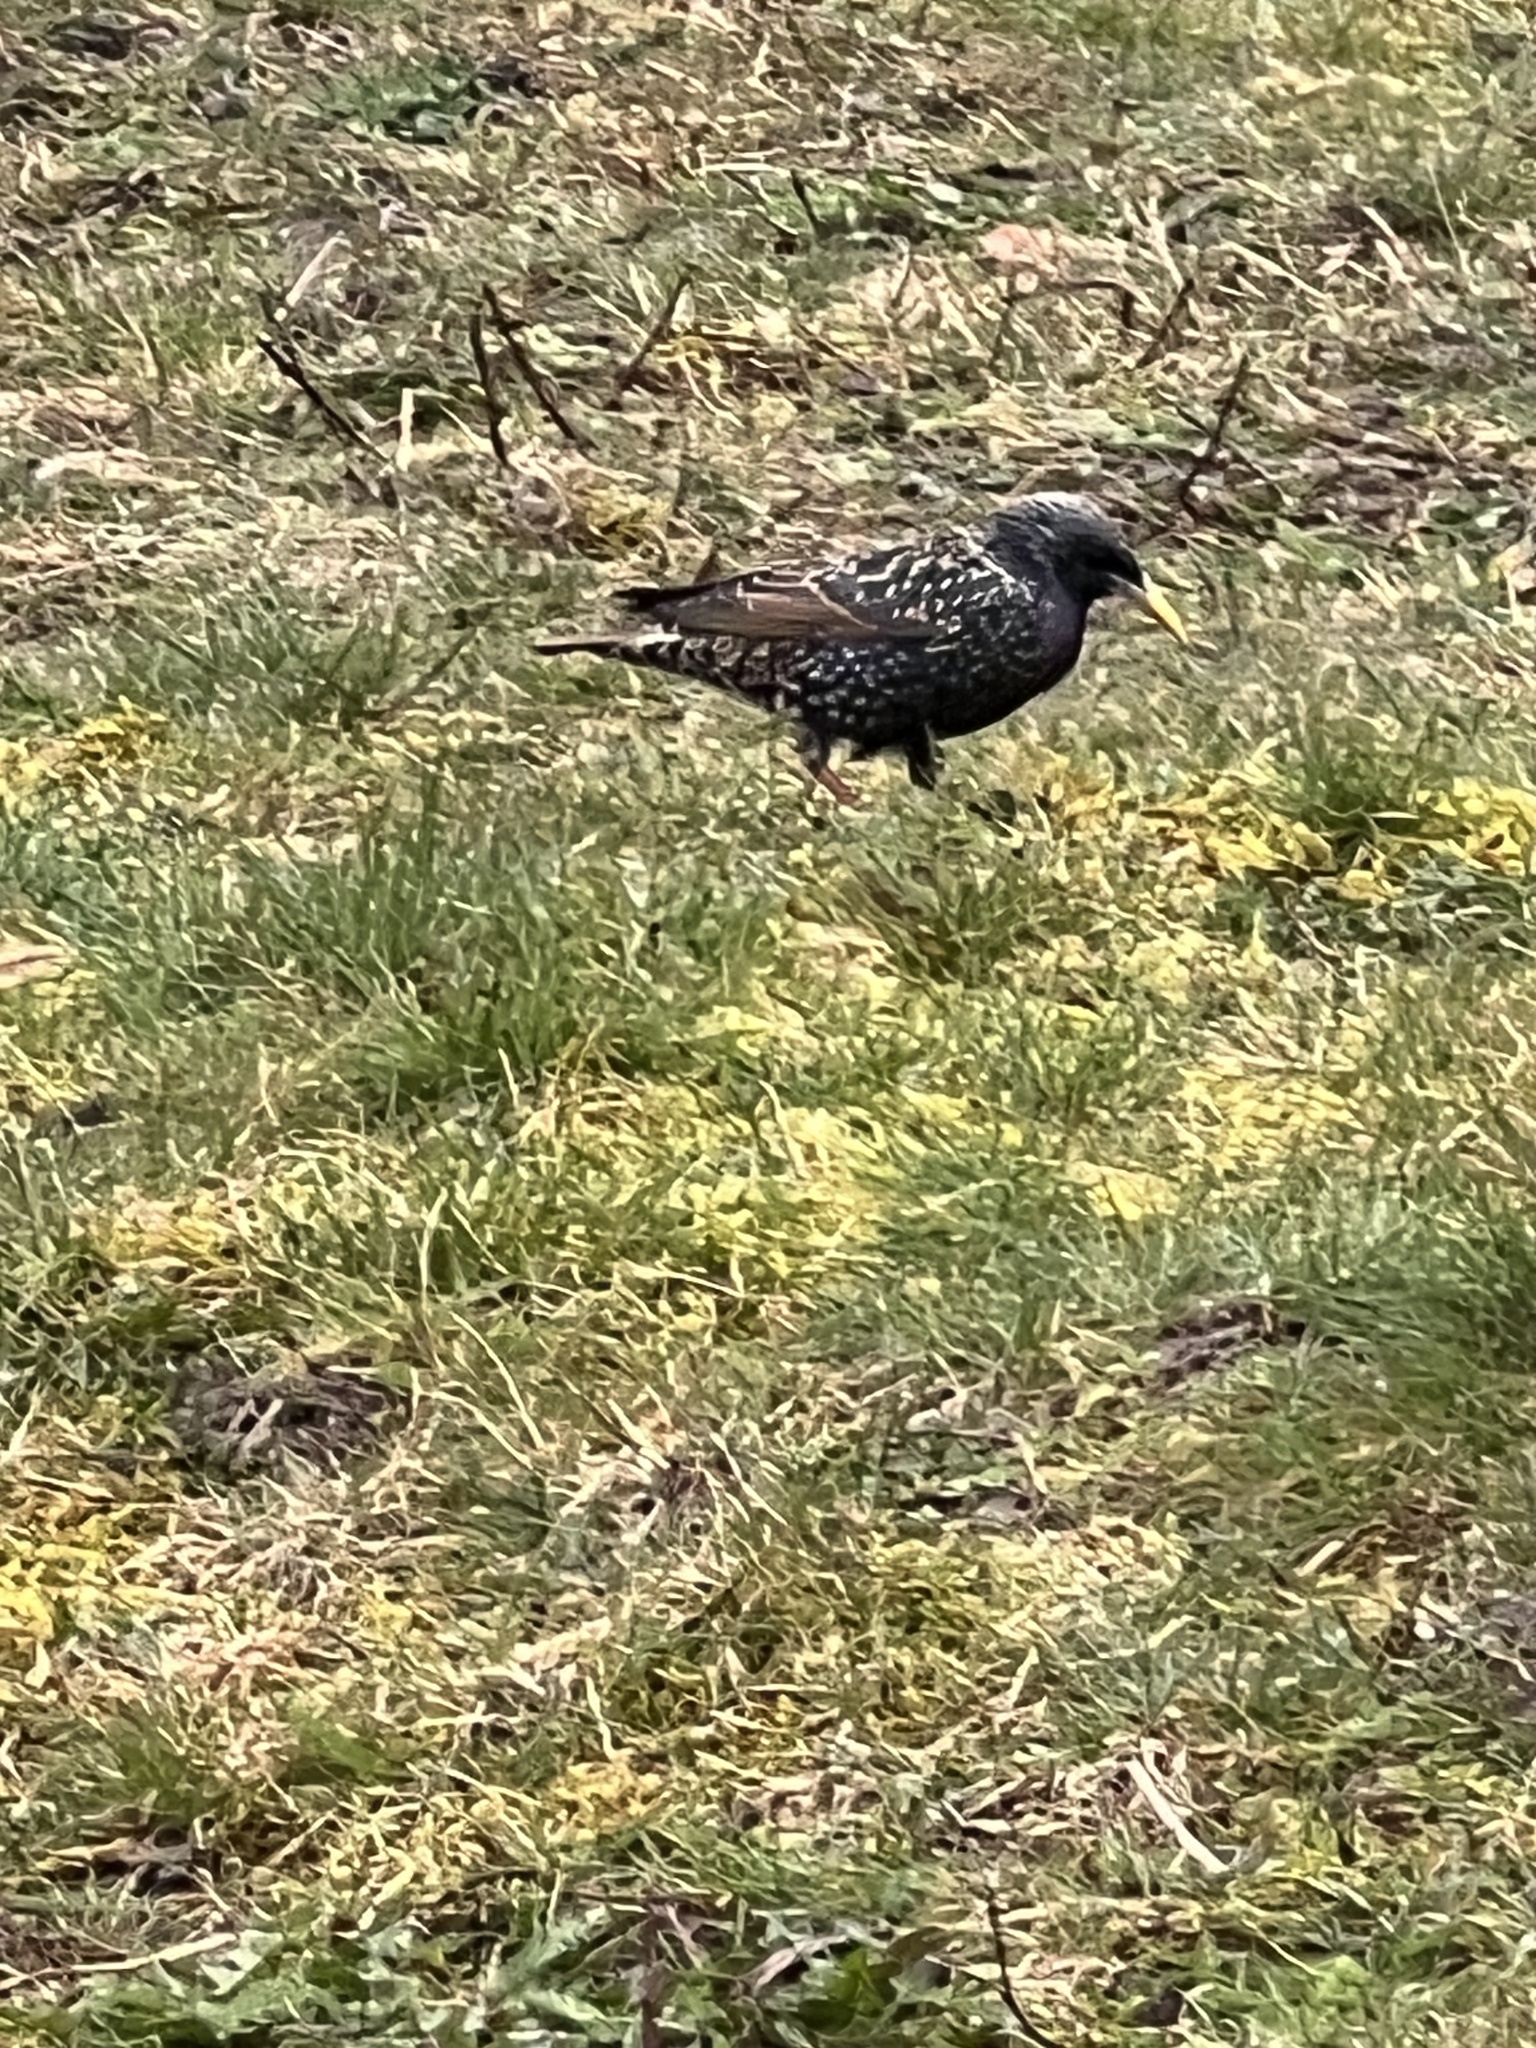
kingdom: Animalia
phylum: Chordata
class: Aves
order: Passeriformes
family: Sturnidae
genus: Sturnus
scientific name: Sturnus vulgaris
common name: Common starling
